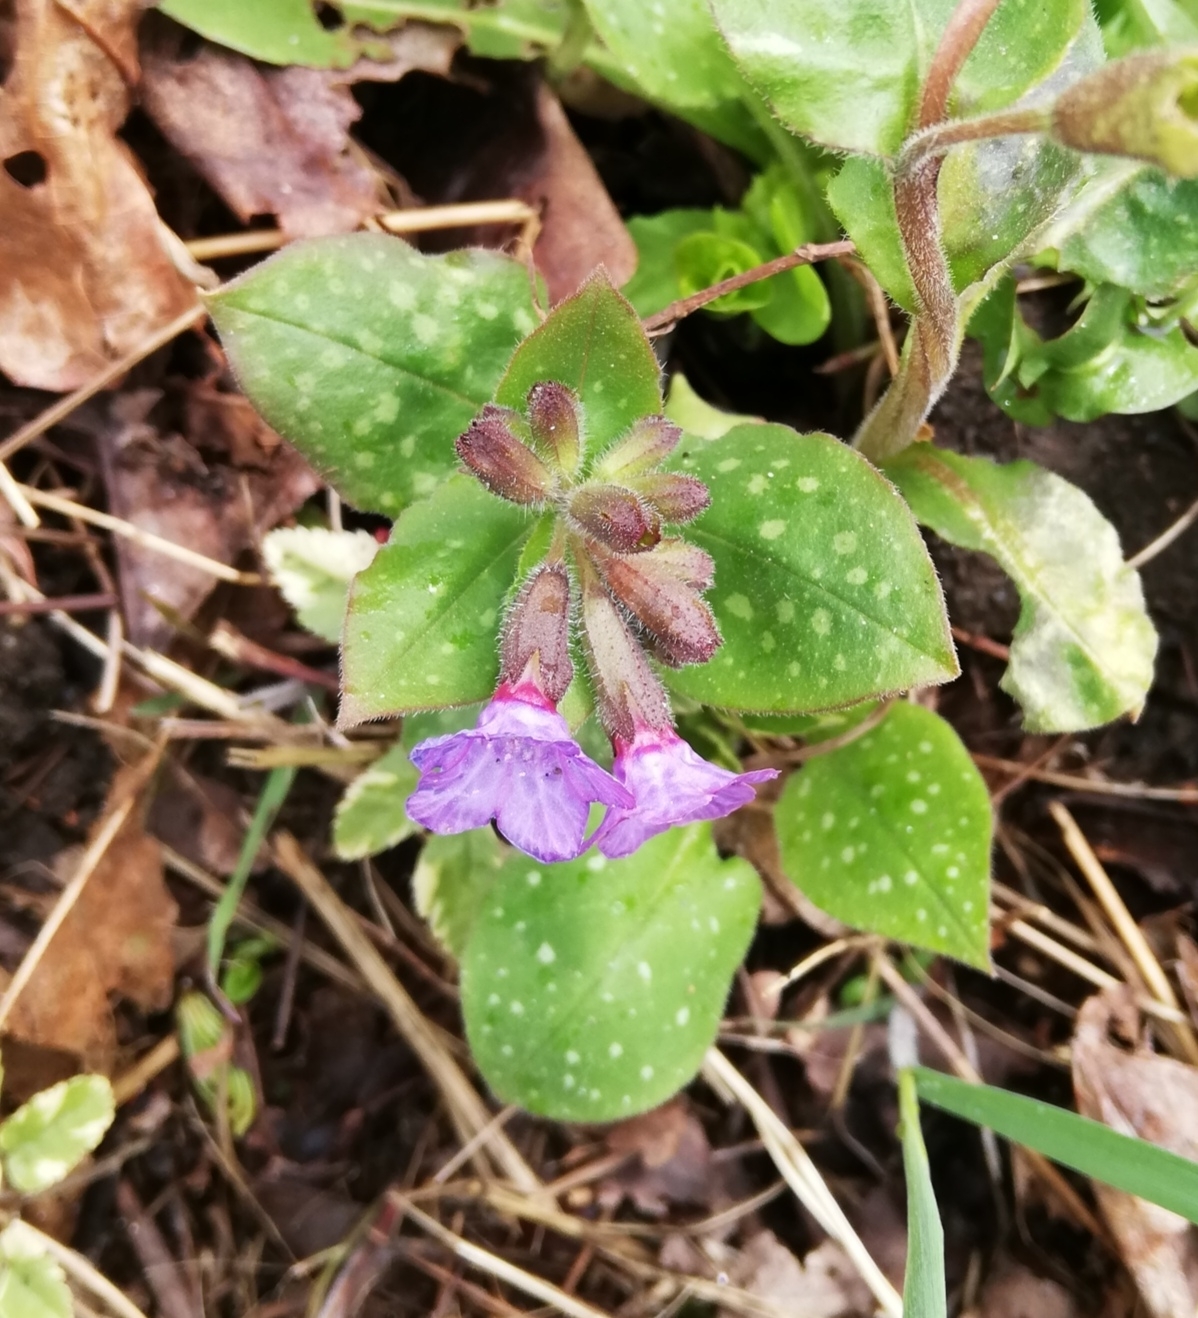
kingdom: Plantae
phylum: Tracheophyta
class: Magnoliopsida
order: Boraginales
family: Boraginaceae
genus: Pulmonaria
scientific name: Pulmonaria officinalis
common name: Lungwort
